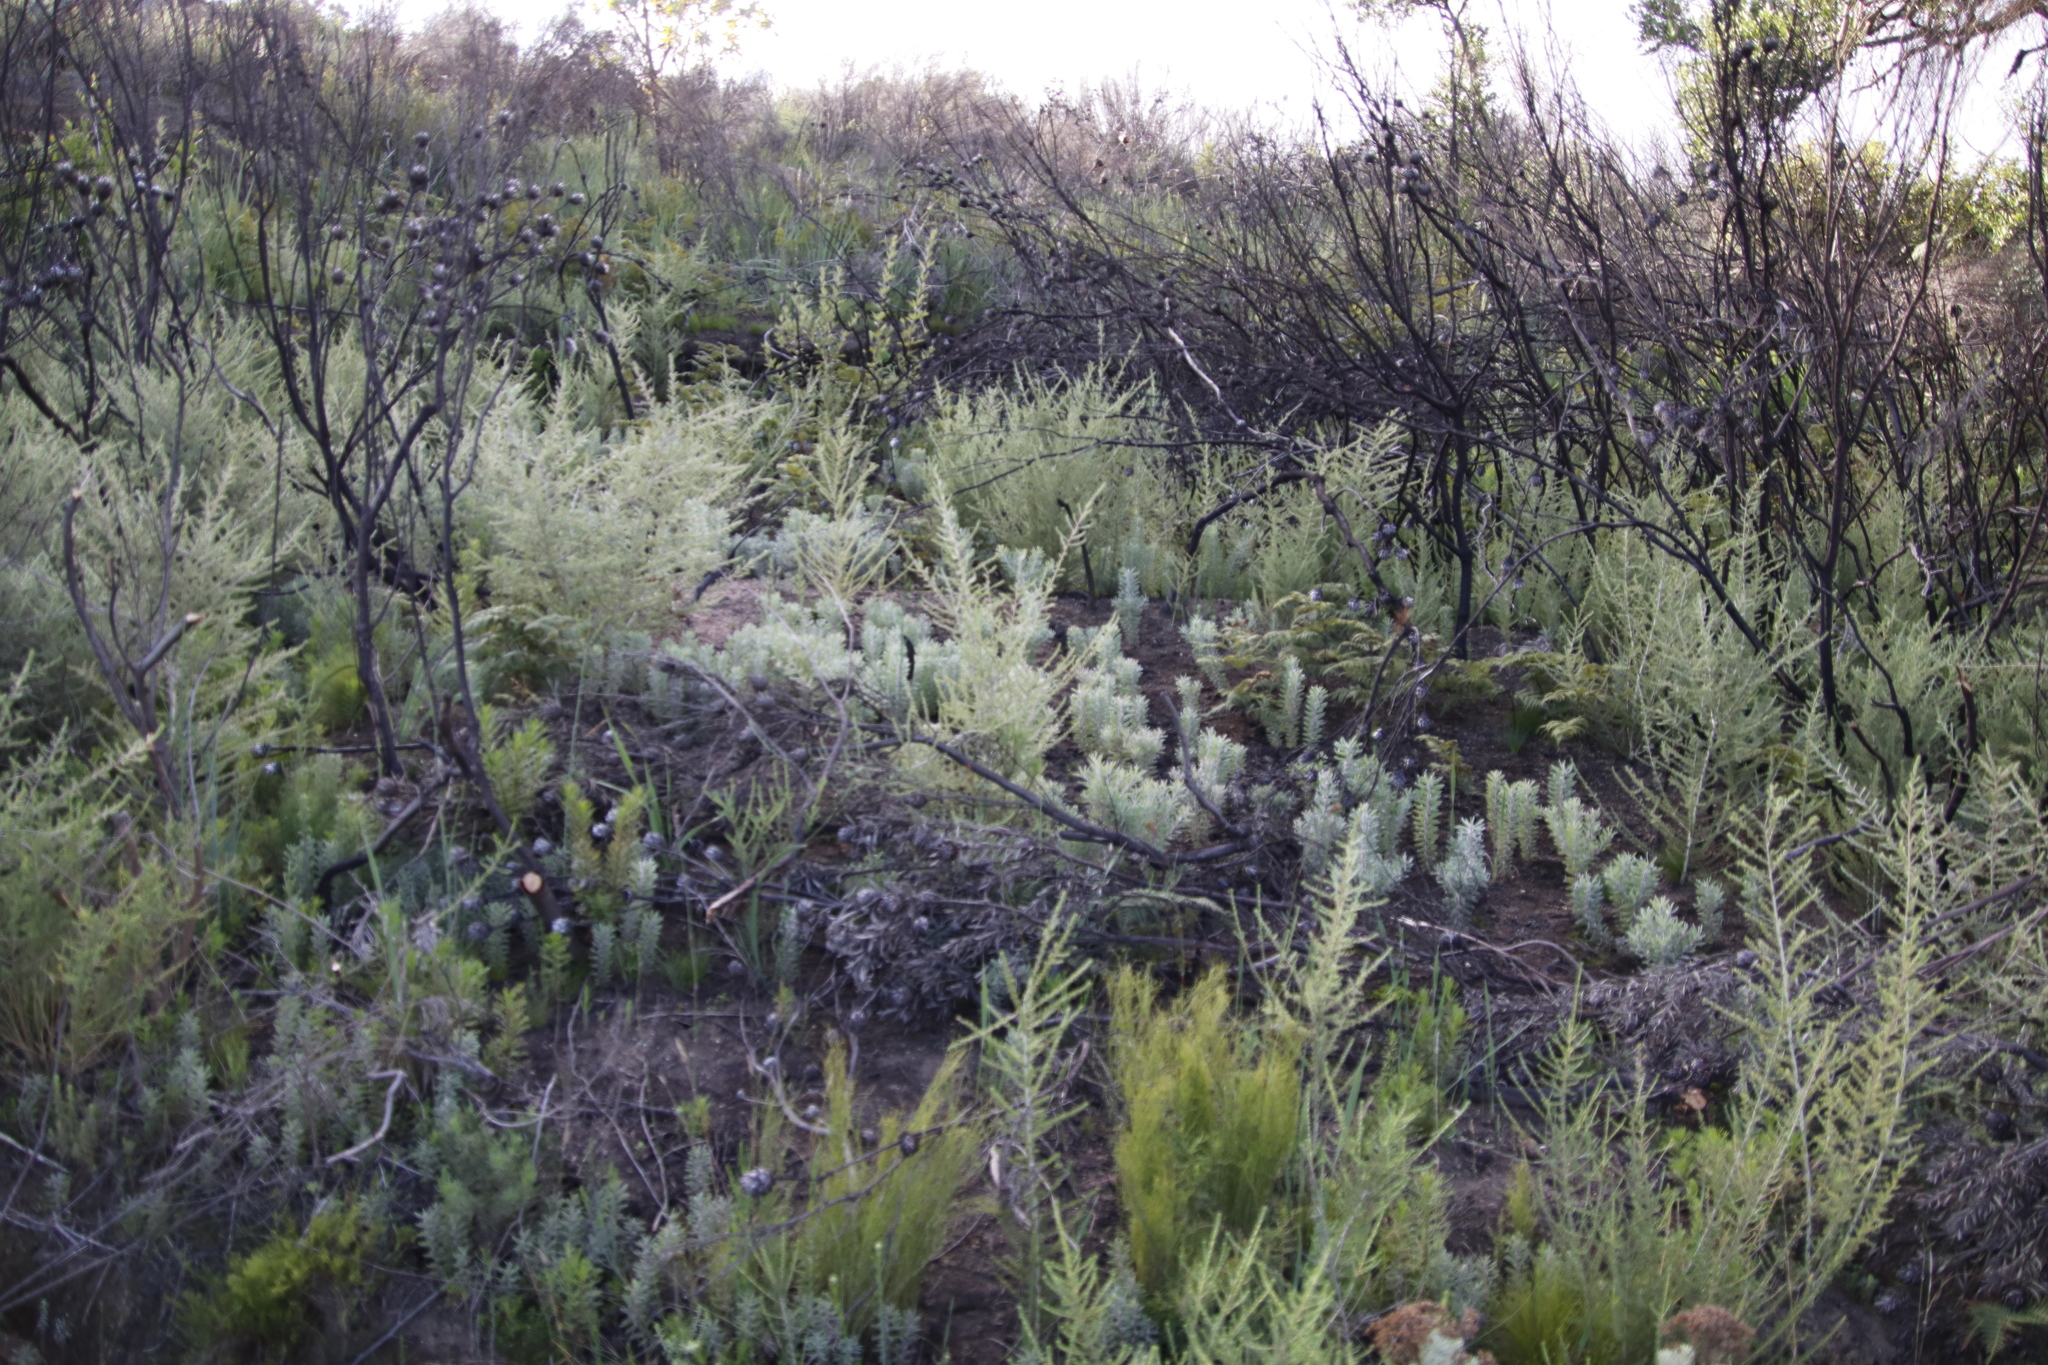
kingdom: Plantae
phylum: Tracheophyta
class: Magnoliopsida
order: Proteales
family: Proteaceae
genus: Leucadendron
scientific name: Leucadendron rubrum
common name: Spinning top
